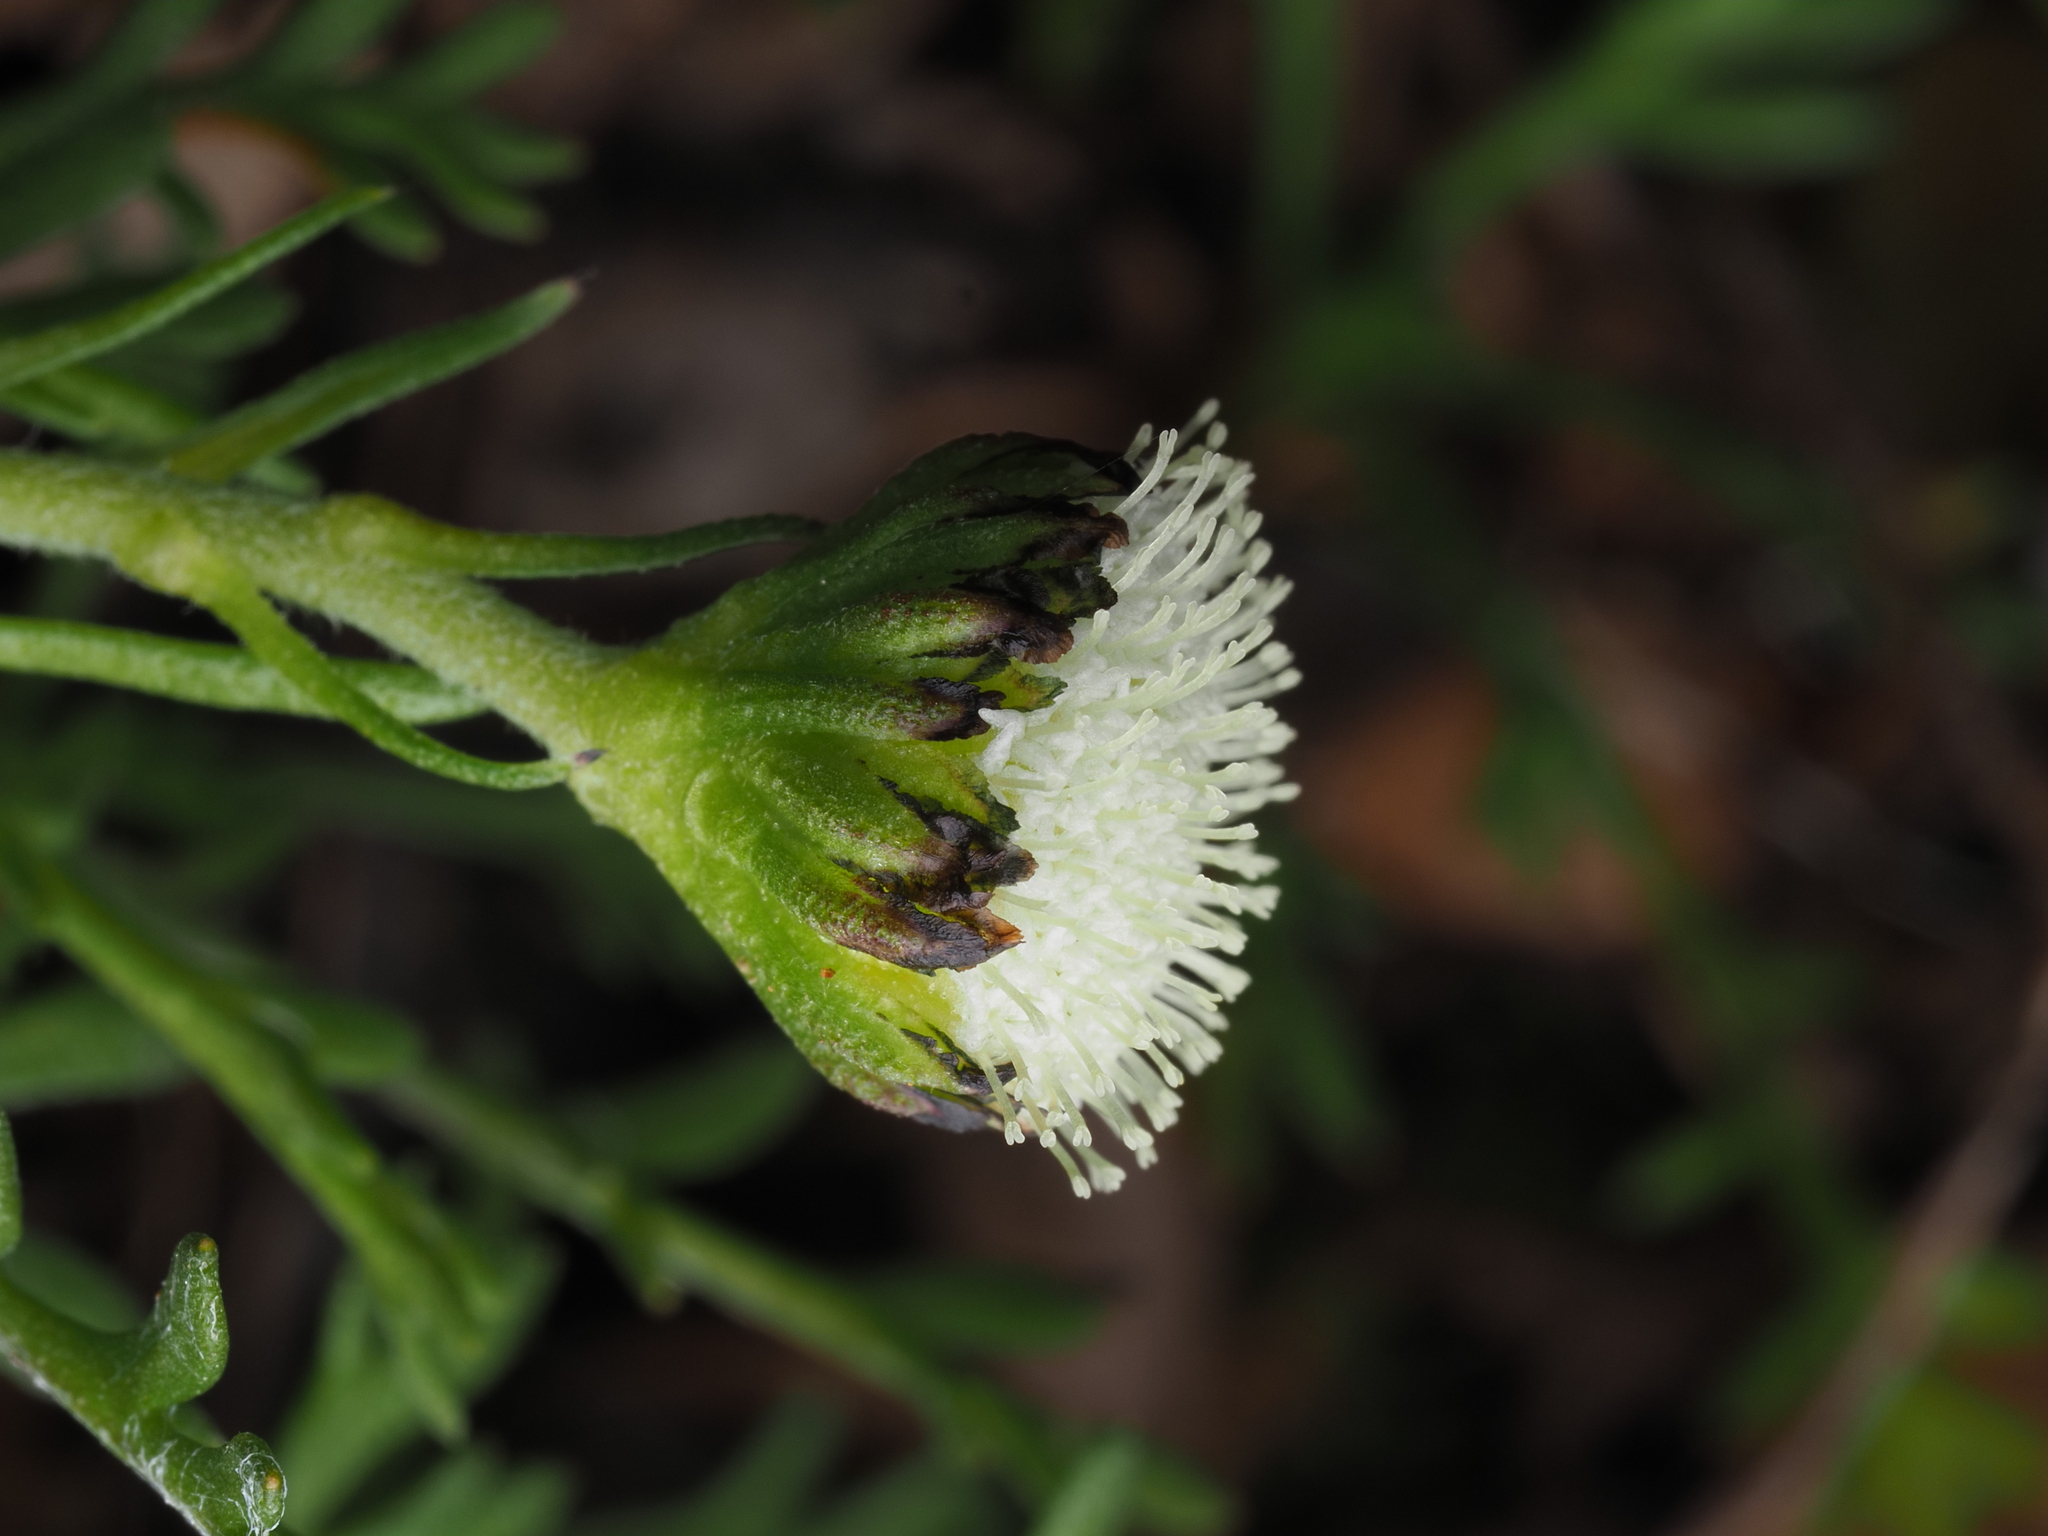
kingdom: Plantae
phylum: Tracheophyta
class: Magnoliopsida
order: Asterales
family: Asteraceae
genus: Leptinella
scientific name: Leptinella pyrethrifolia
